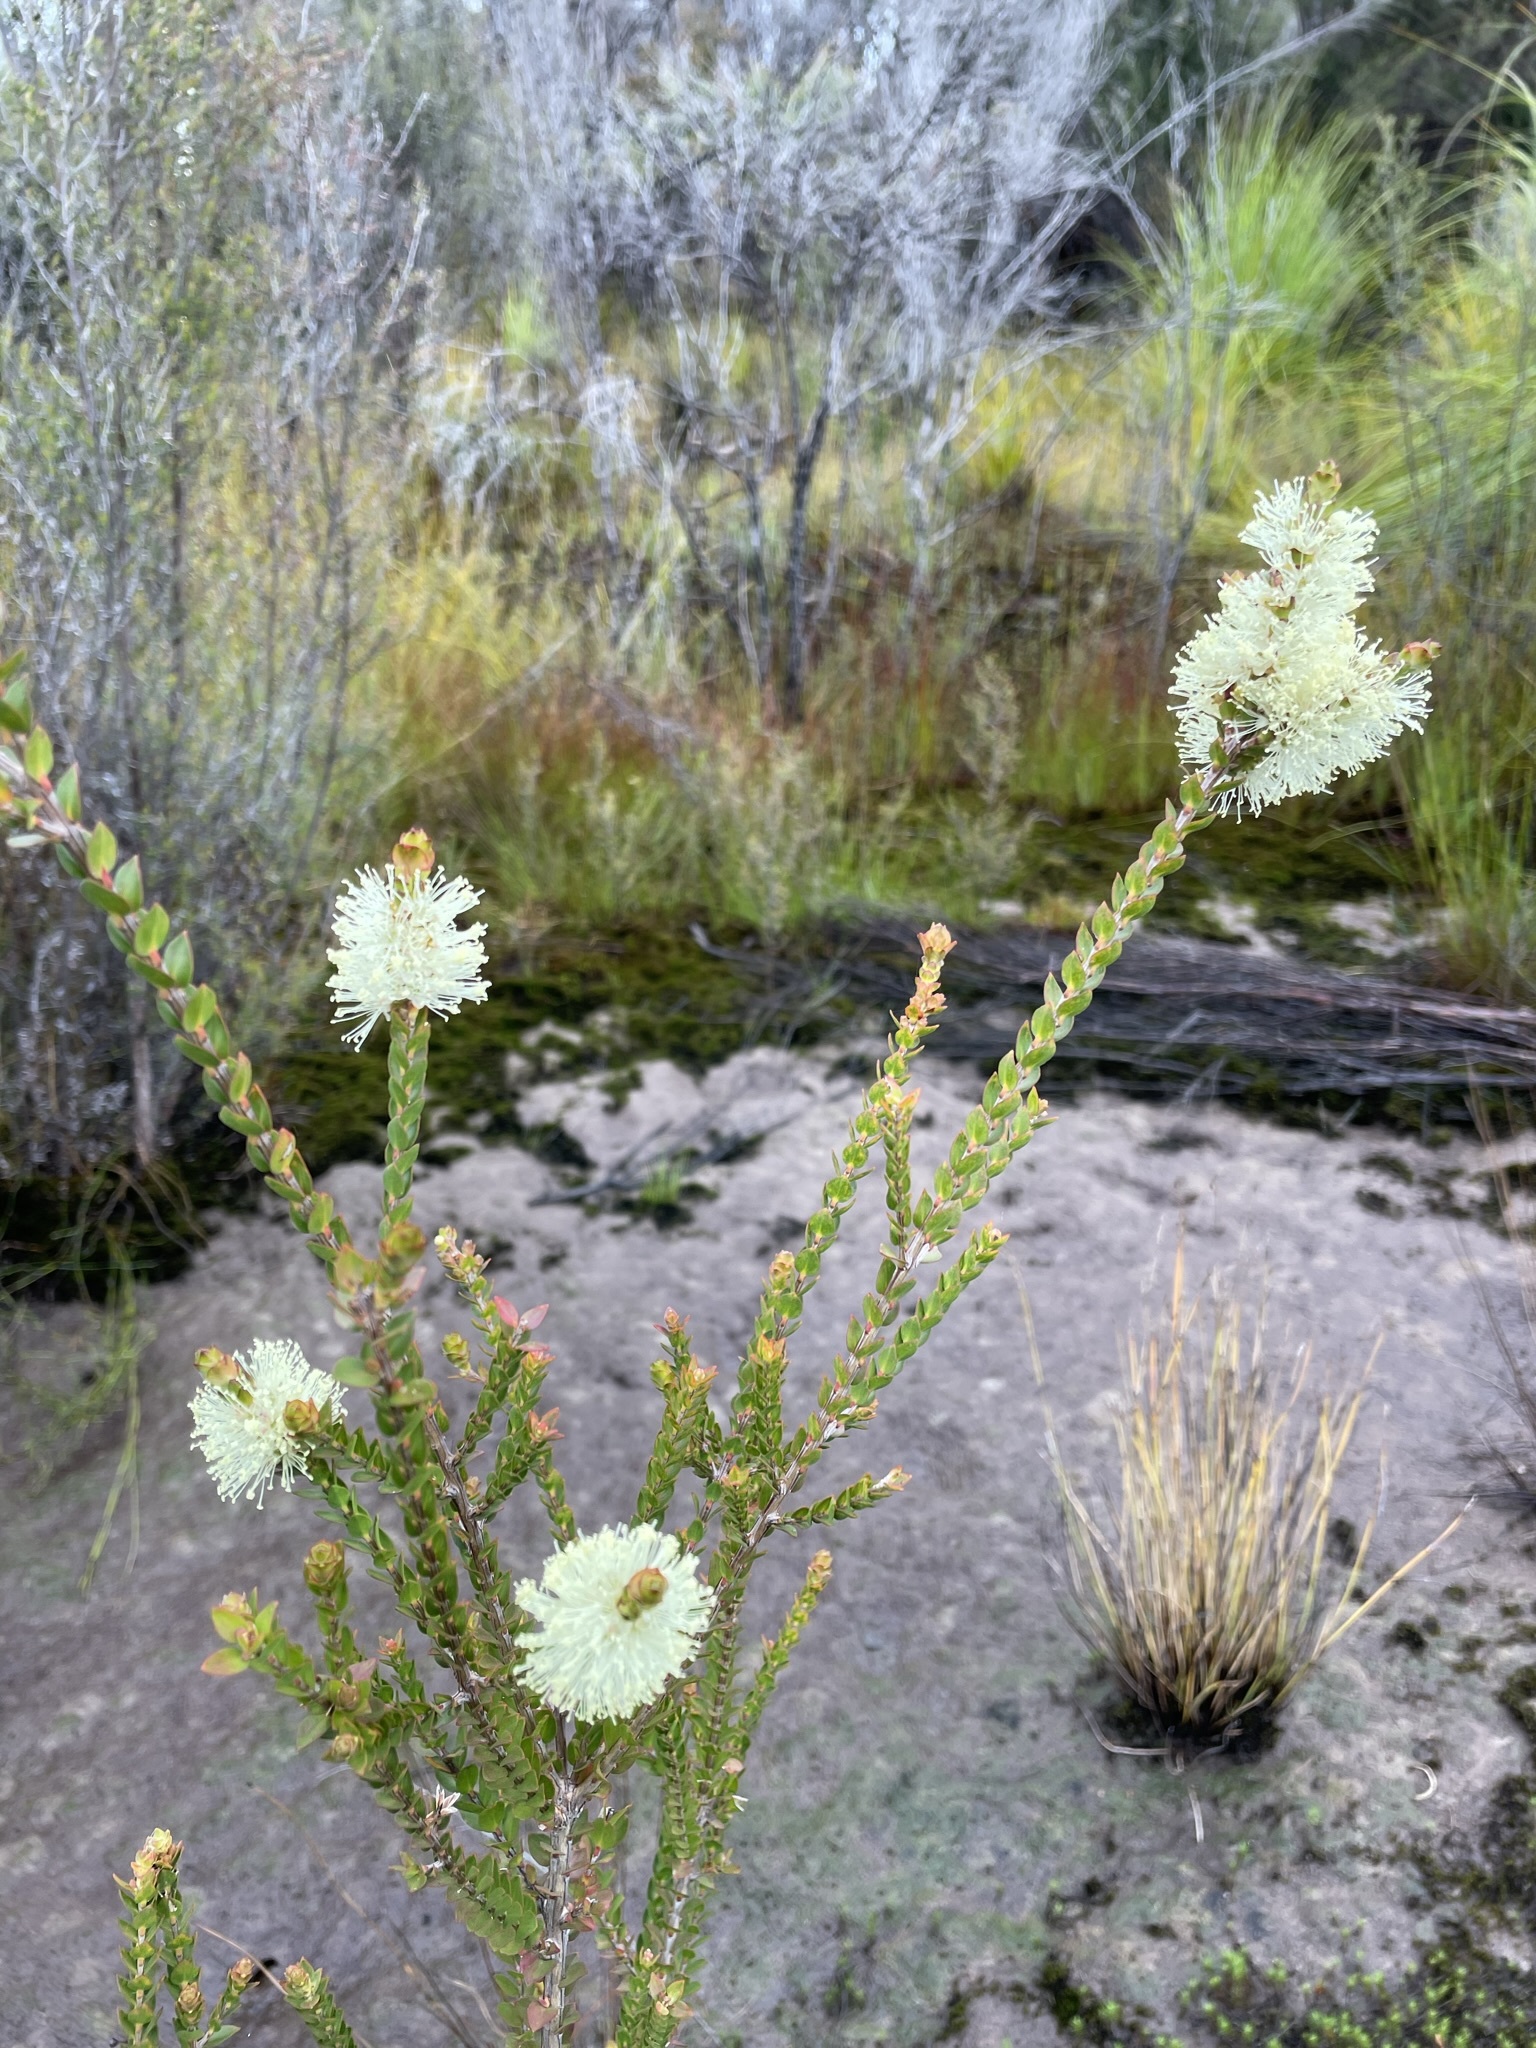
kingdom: Plantae
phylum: Tracheophyta
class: Magnoliopsida
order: Myrtales
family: Myrtaceae
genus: Melaleuca
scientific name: Melaleuca squarrosa
